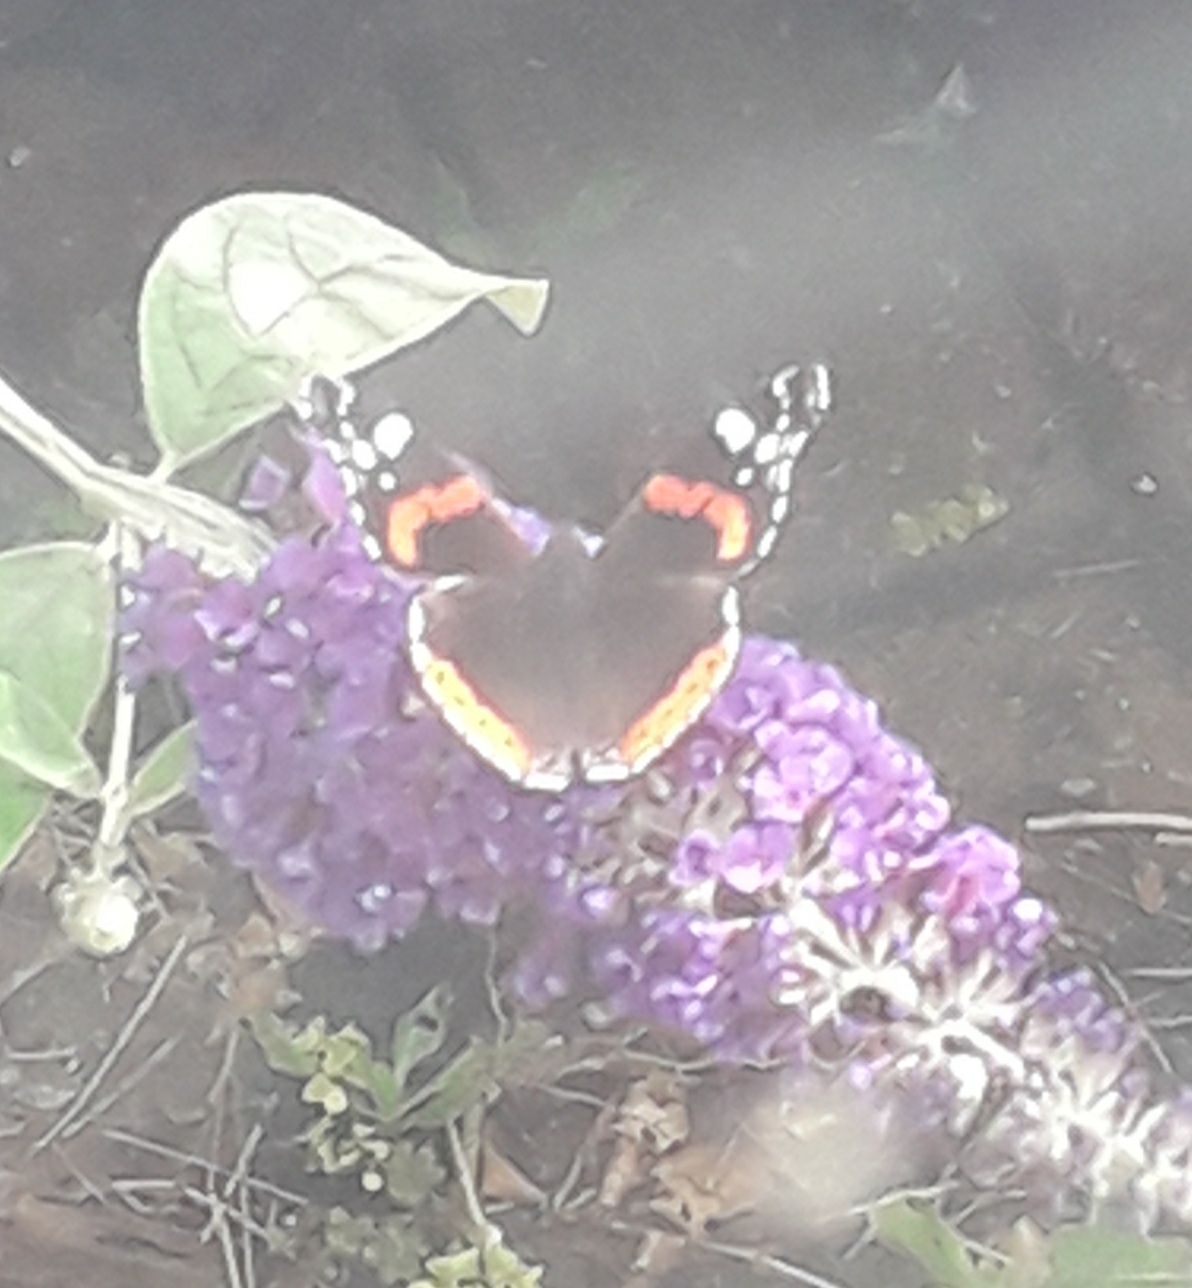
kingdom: Animalia
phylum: Arthropoda
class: Insecta
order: Lepidoptera
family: Nymphalidae
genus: Vanessa
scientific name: Vanessa atalanta
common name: Red admiral
